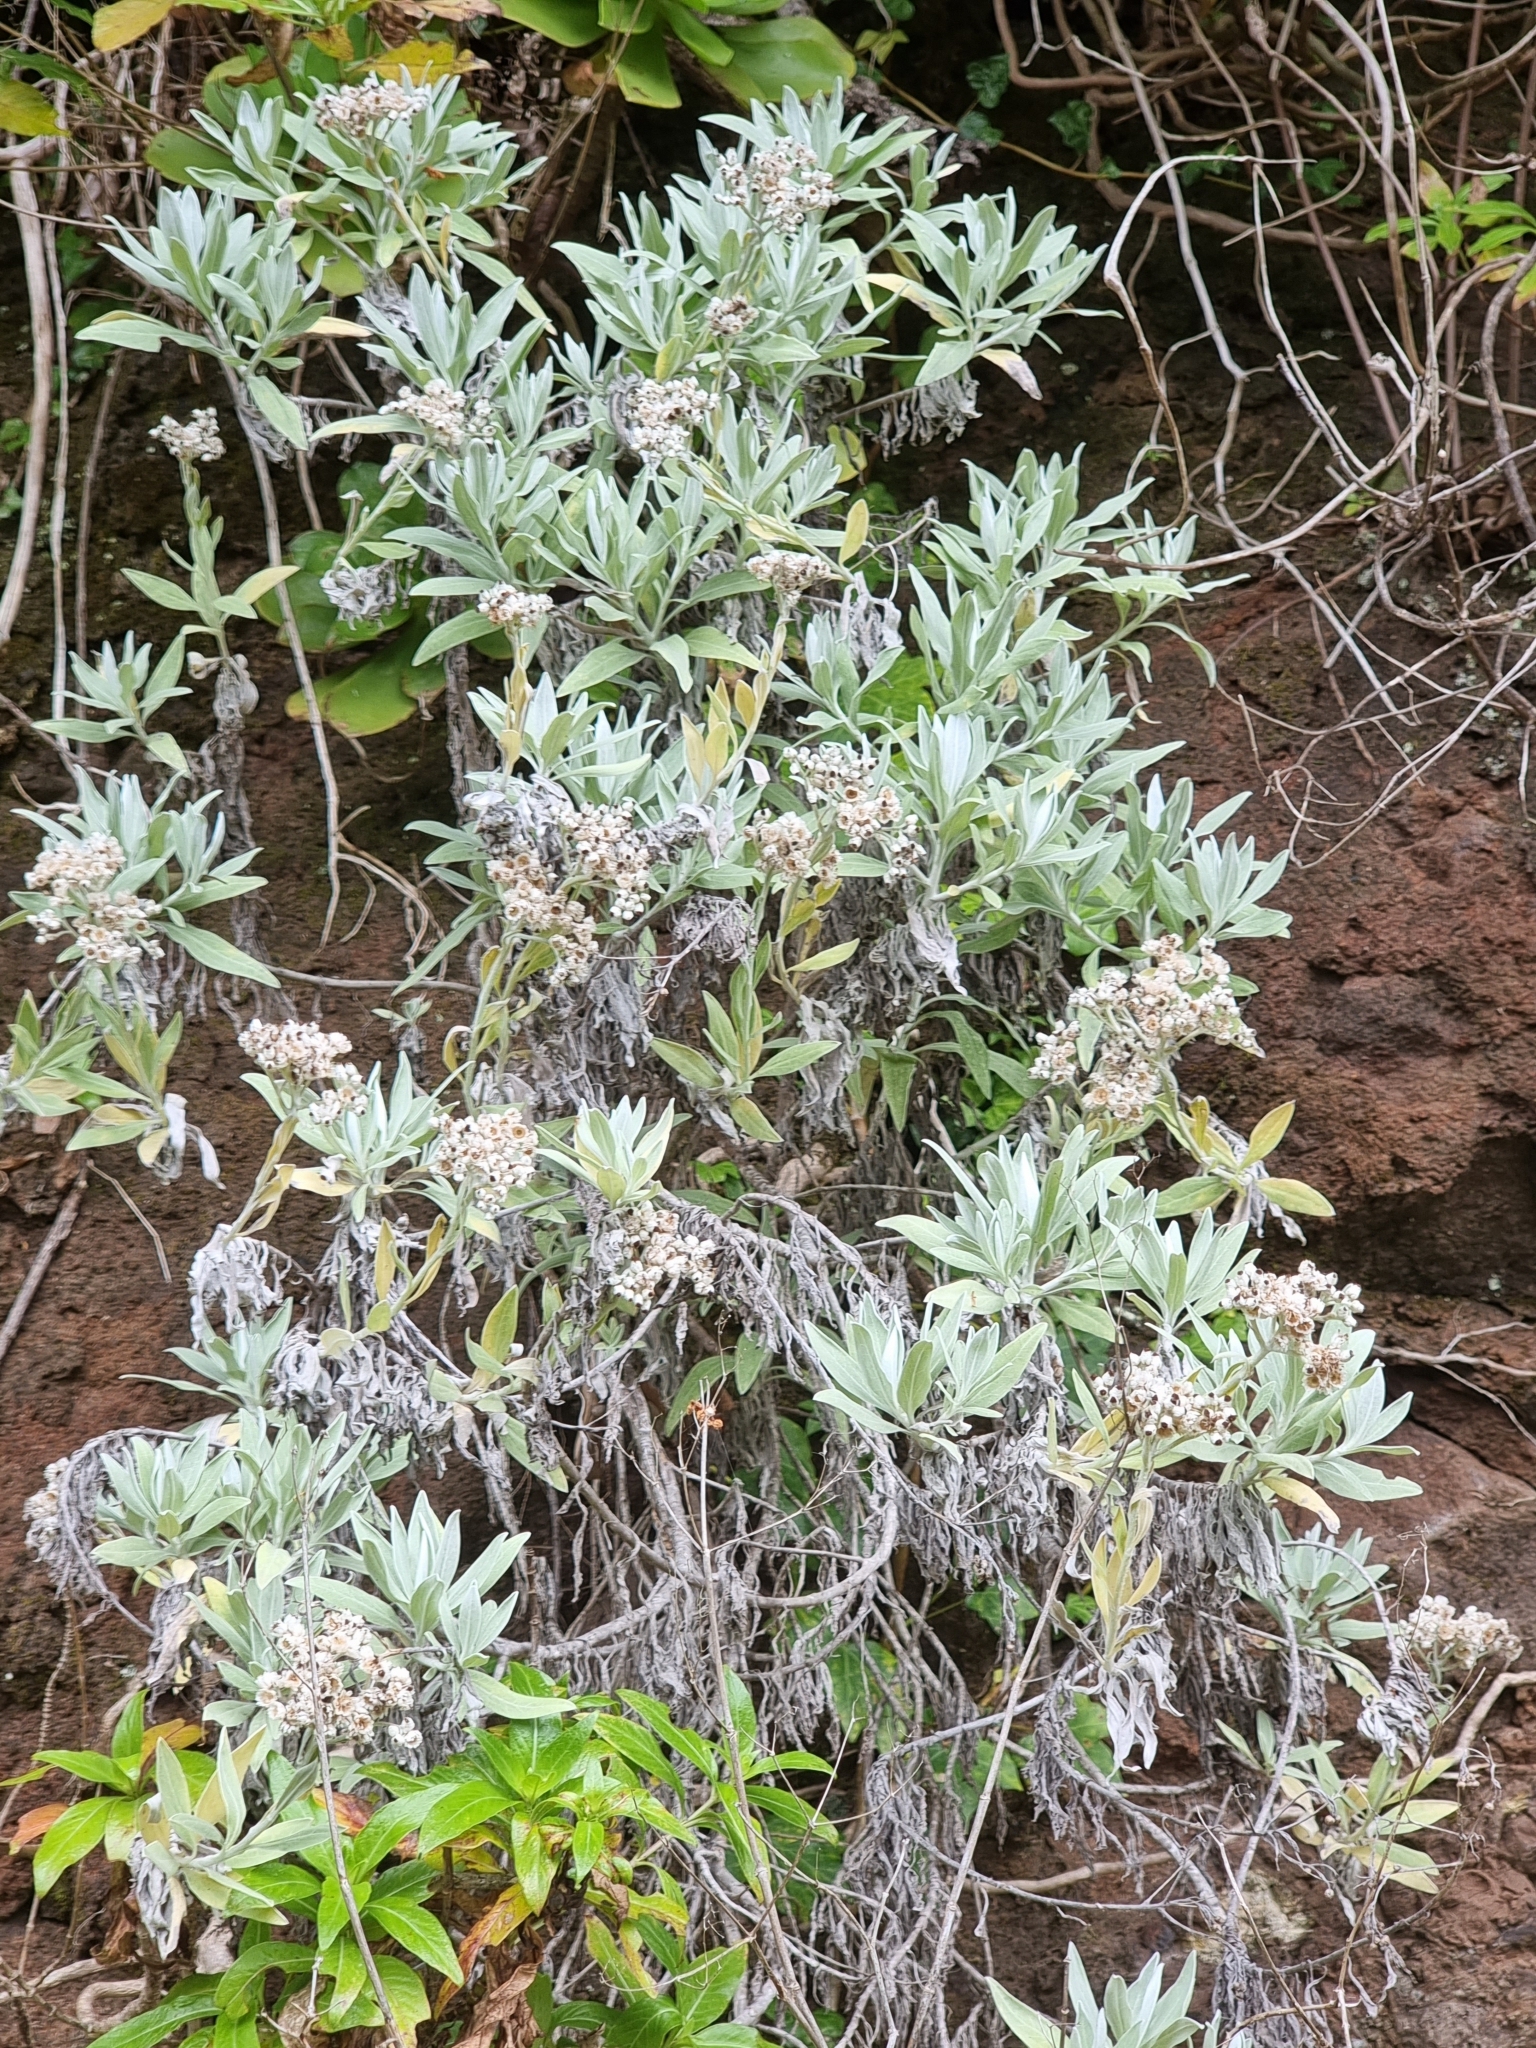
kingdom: Plantae
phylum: Tracheophyta
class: Magnoliopsida
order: Asterales
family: Asteraceae
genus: Helichrysum
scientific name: Helichrysum melaleucum
